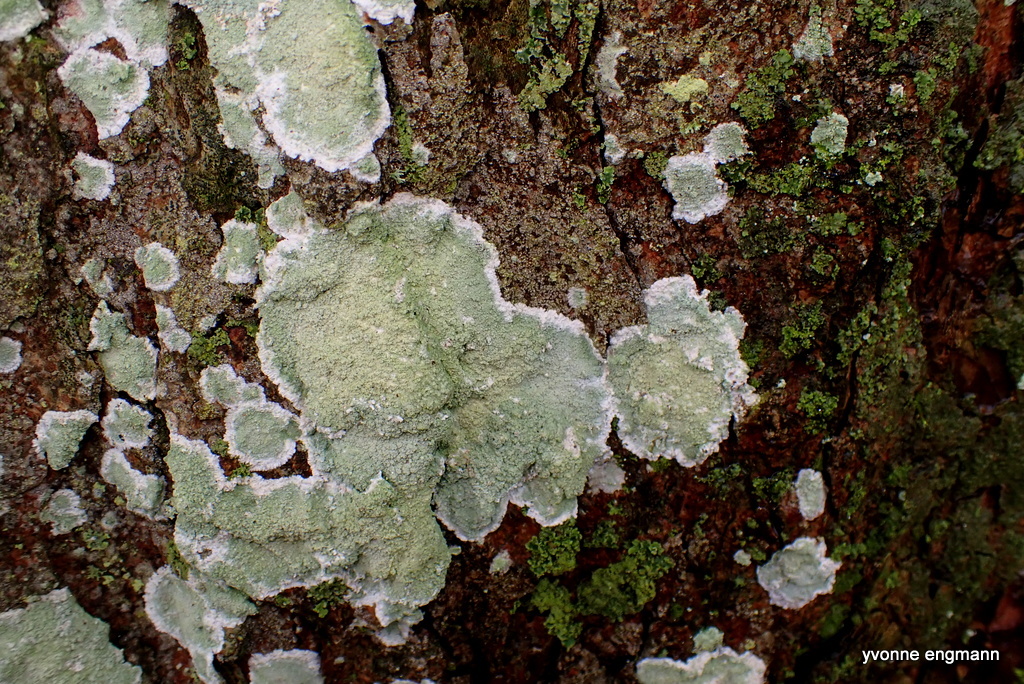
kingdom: Fungi
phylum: Ascomycota
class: Lecanoromycetes
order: Lecanorales
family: Haematommataceae
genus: Haematomma
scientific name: Haematomma ochroleucum
